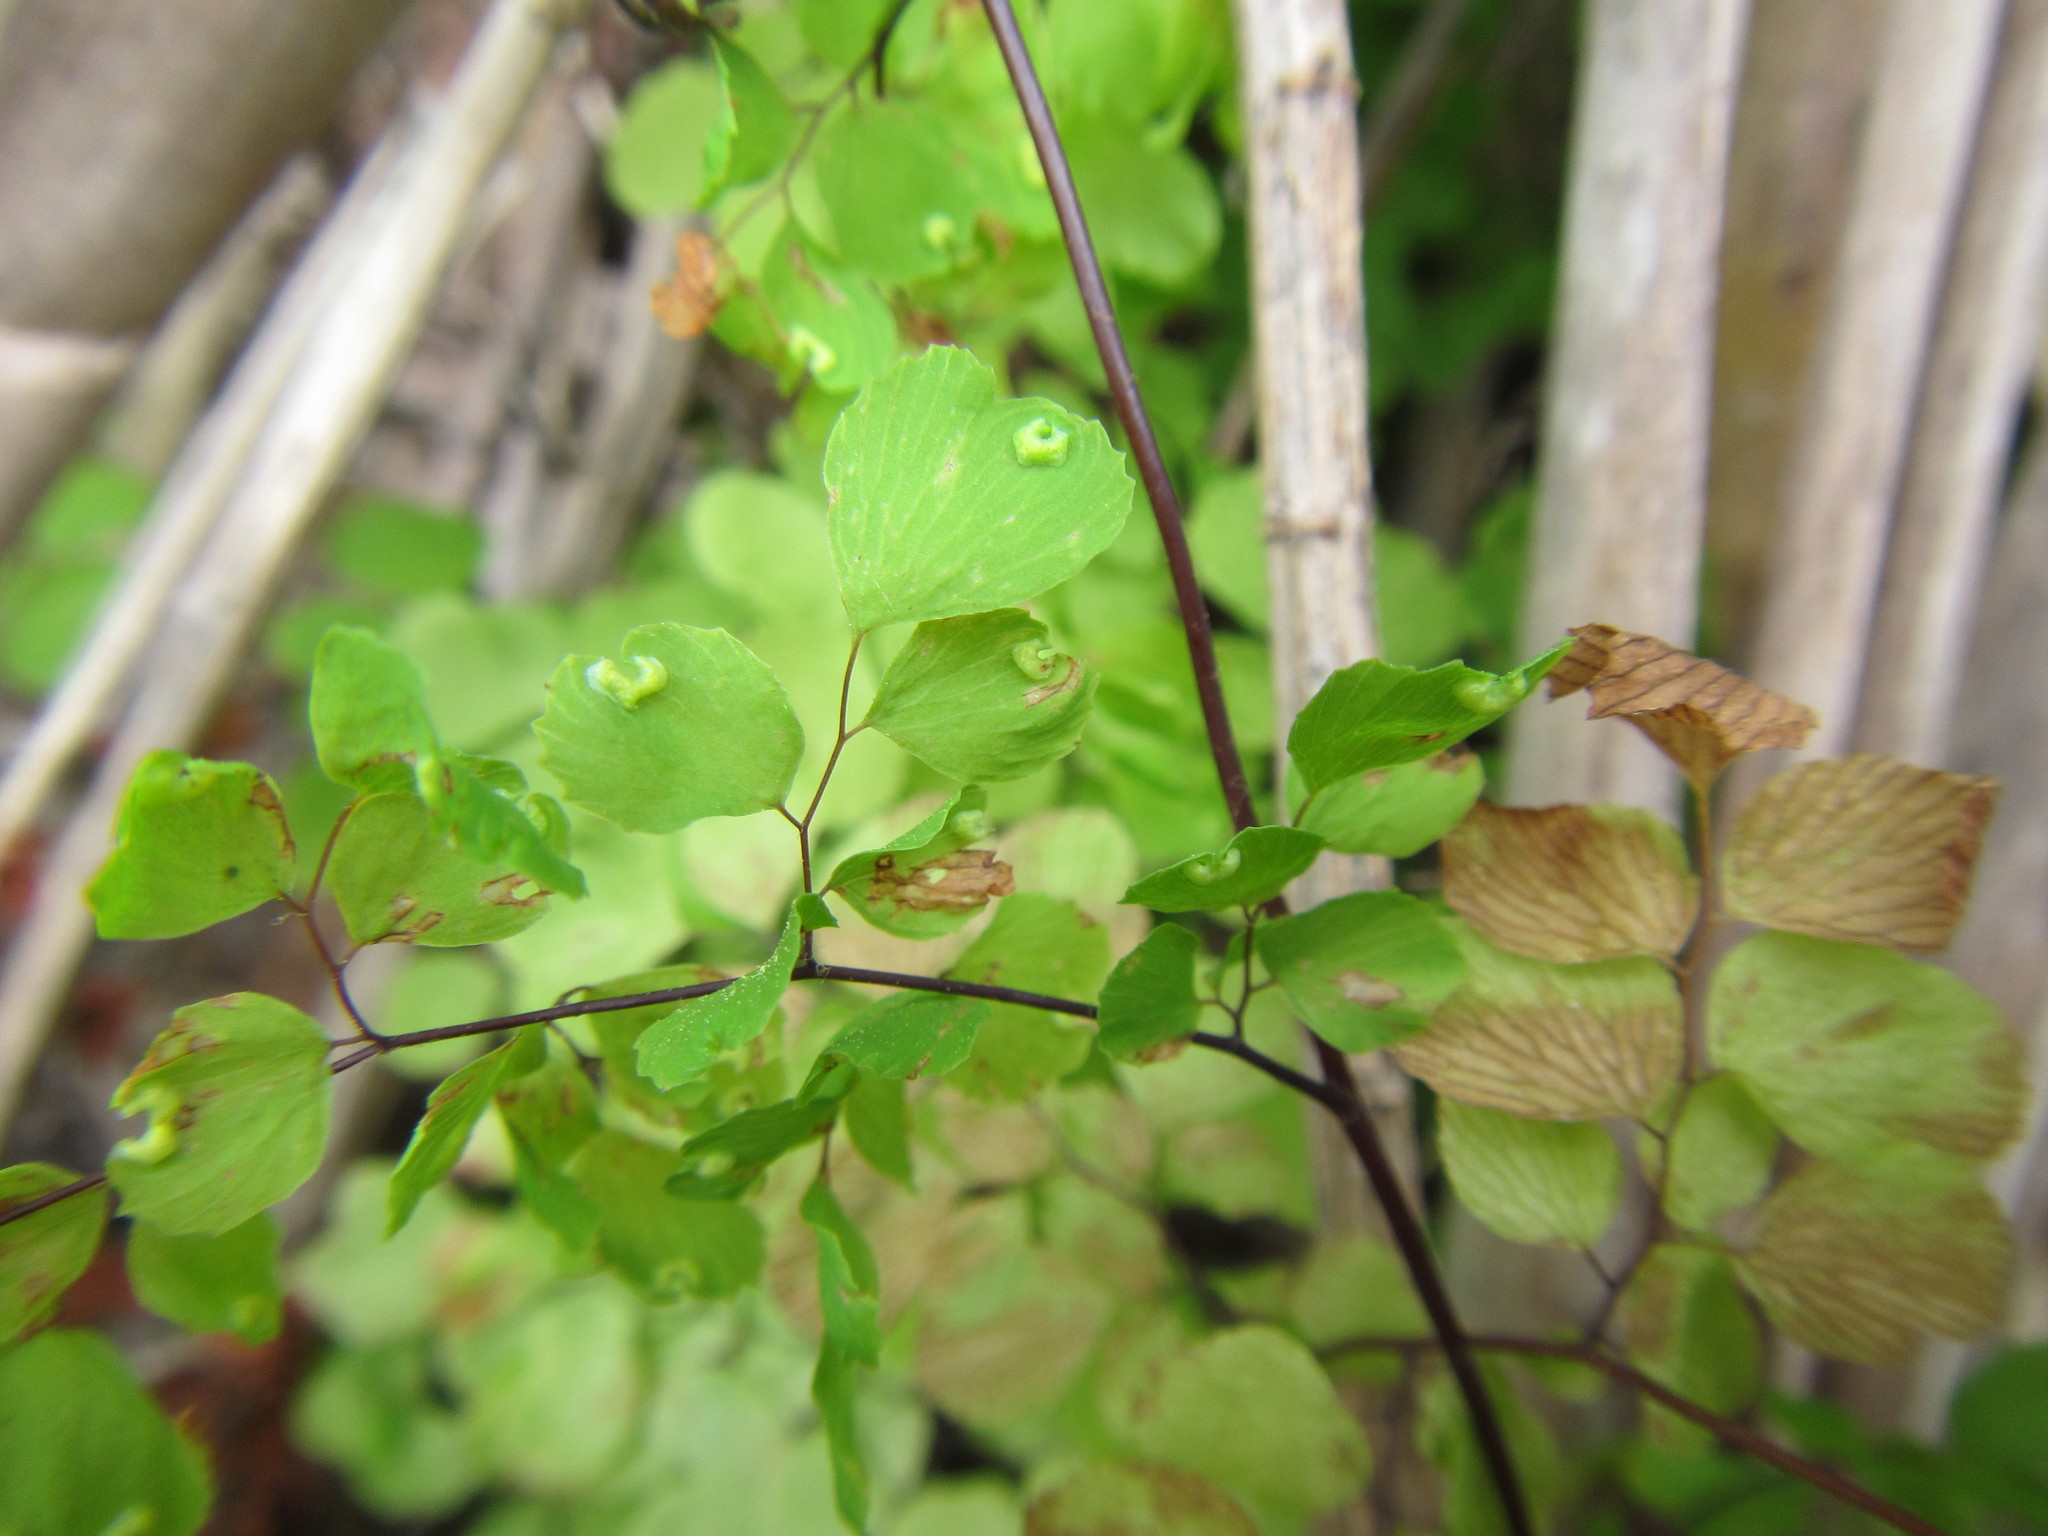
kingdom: Plantae
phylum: Tracheophyta
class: Polypodiopsida
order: Polypodiales
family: Pteridaceae
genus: Adiantum
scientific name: Adiantum aethiopicum
